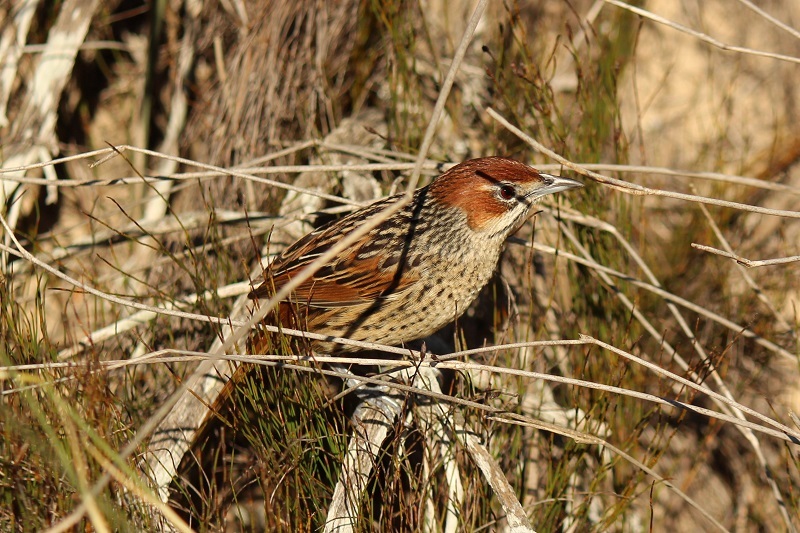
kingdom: Animalia
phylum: Chordata
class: Aves
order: Passeriformes
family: Macrosphenidae
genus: Sphenoeacus
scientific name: Sphenoeacus afer
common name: Cape grassbird
